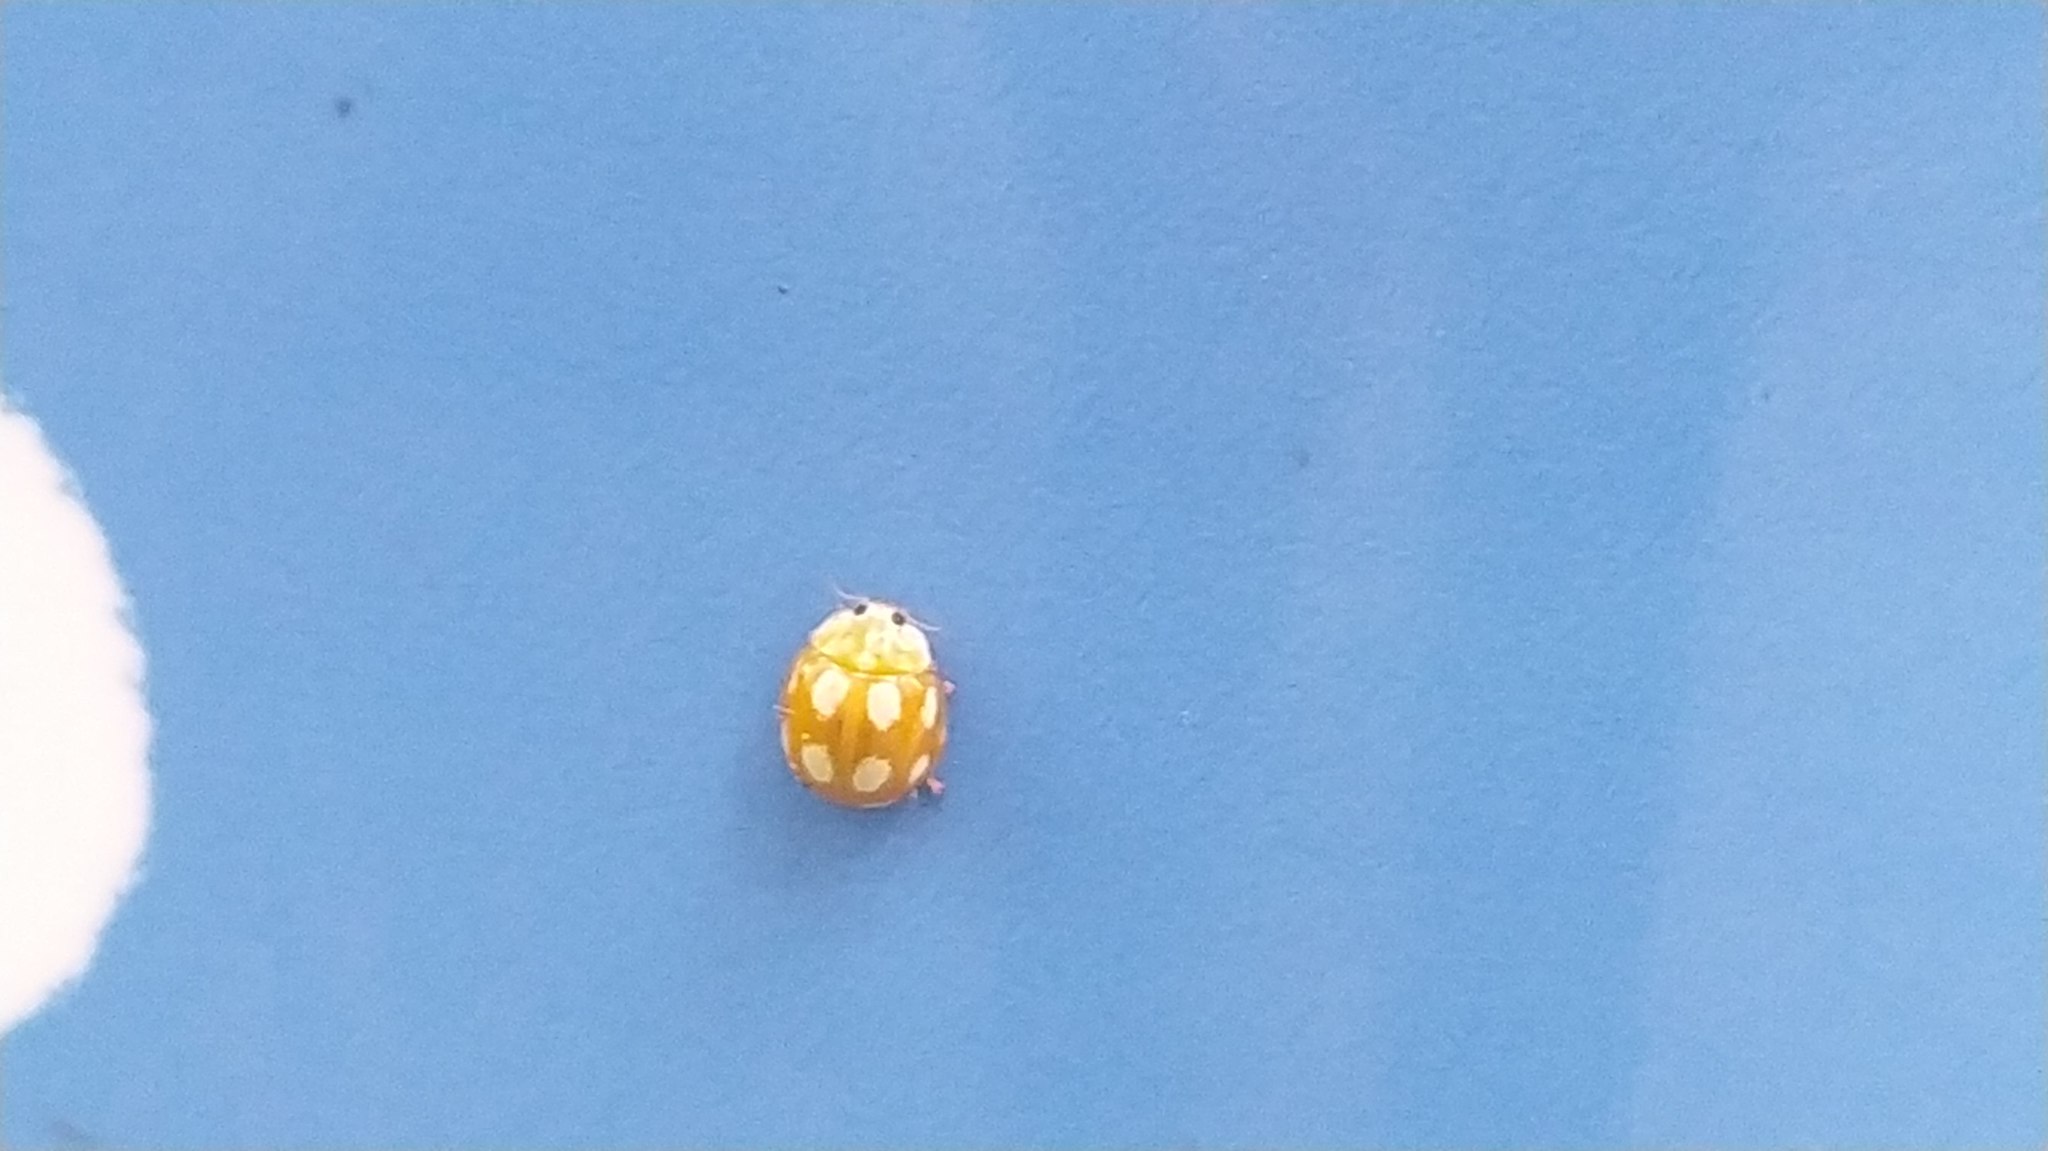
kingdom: Animalia
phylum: Arthropoda
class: Insecta
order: Coleoptera
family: Coccinellidae
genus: Calvia
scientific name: Calvia decemguttata
